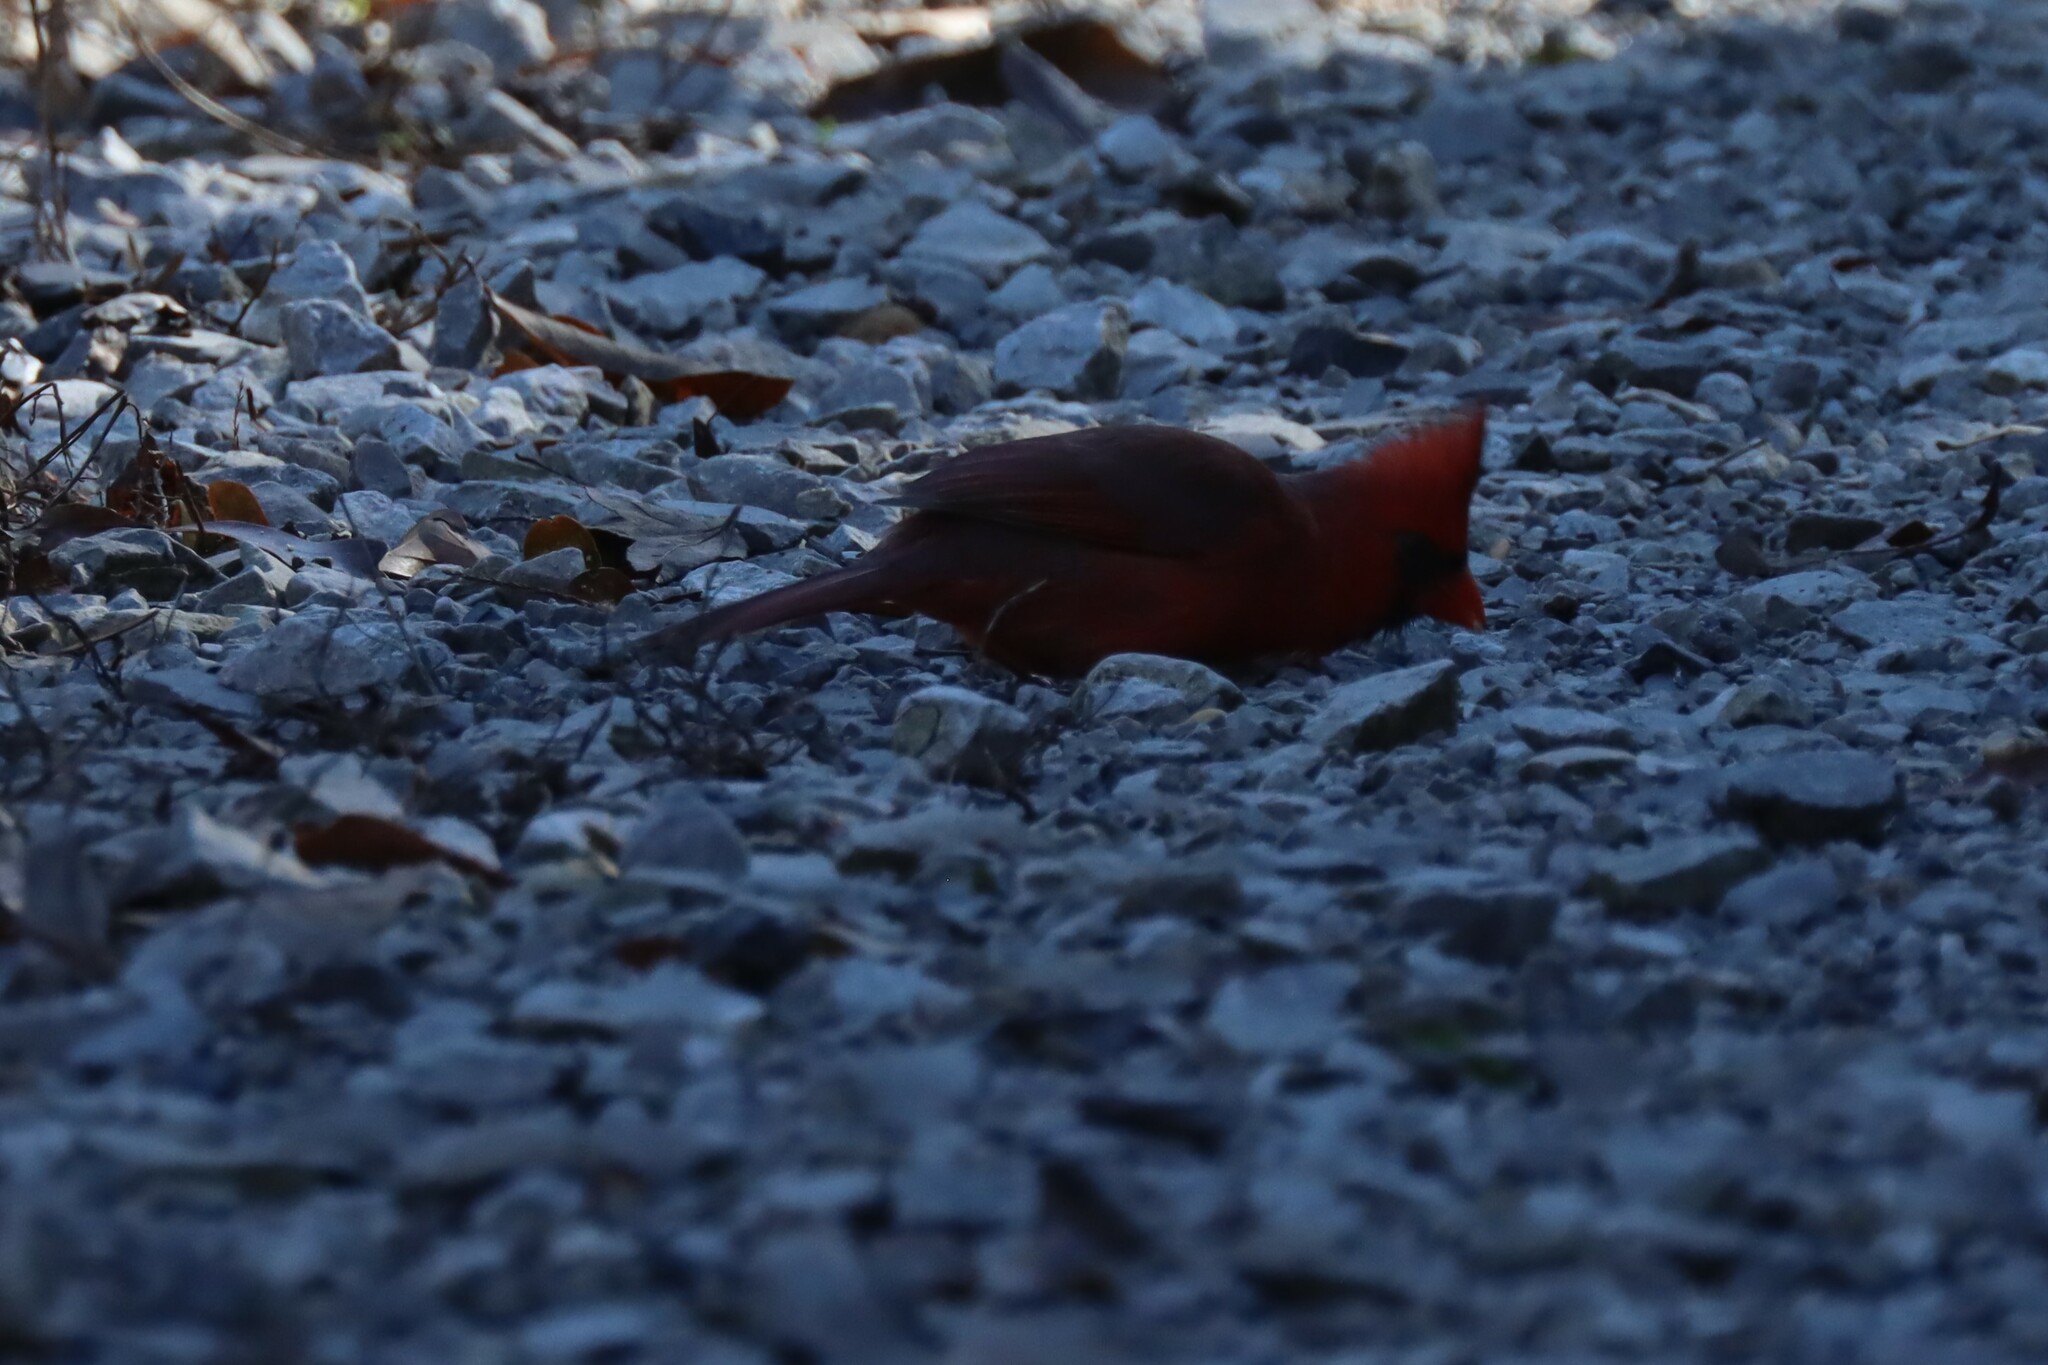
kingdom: Animalia
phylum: Chordata
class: Aves
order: Passeriformes
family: Cardinalidae
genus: Cardinalis
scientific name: Cardinalis cardinalis
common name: Northern cardinal
